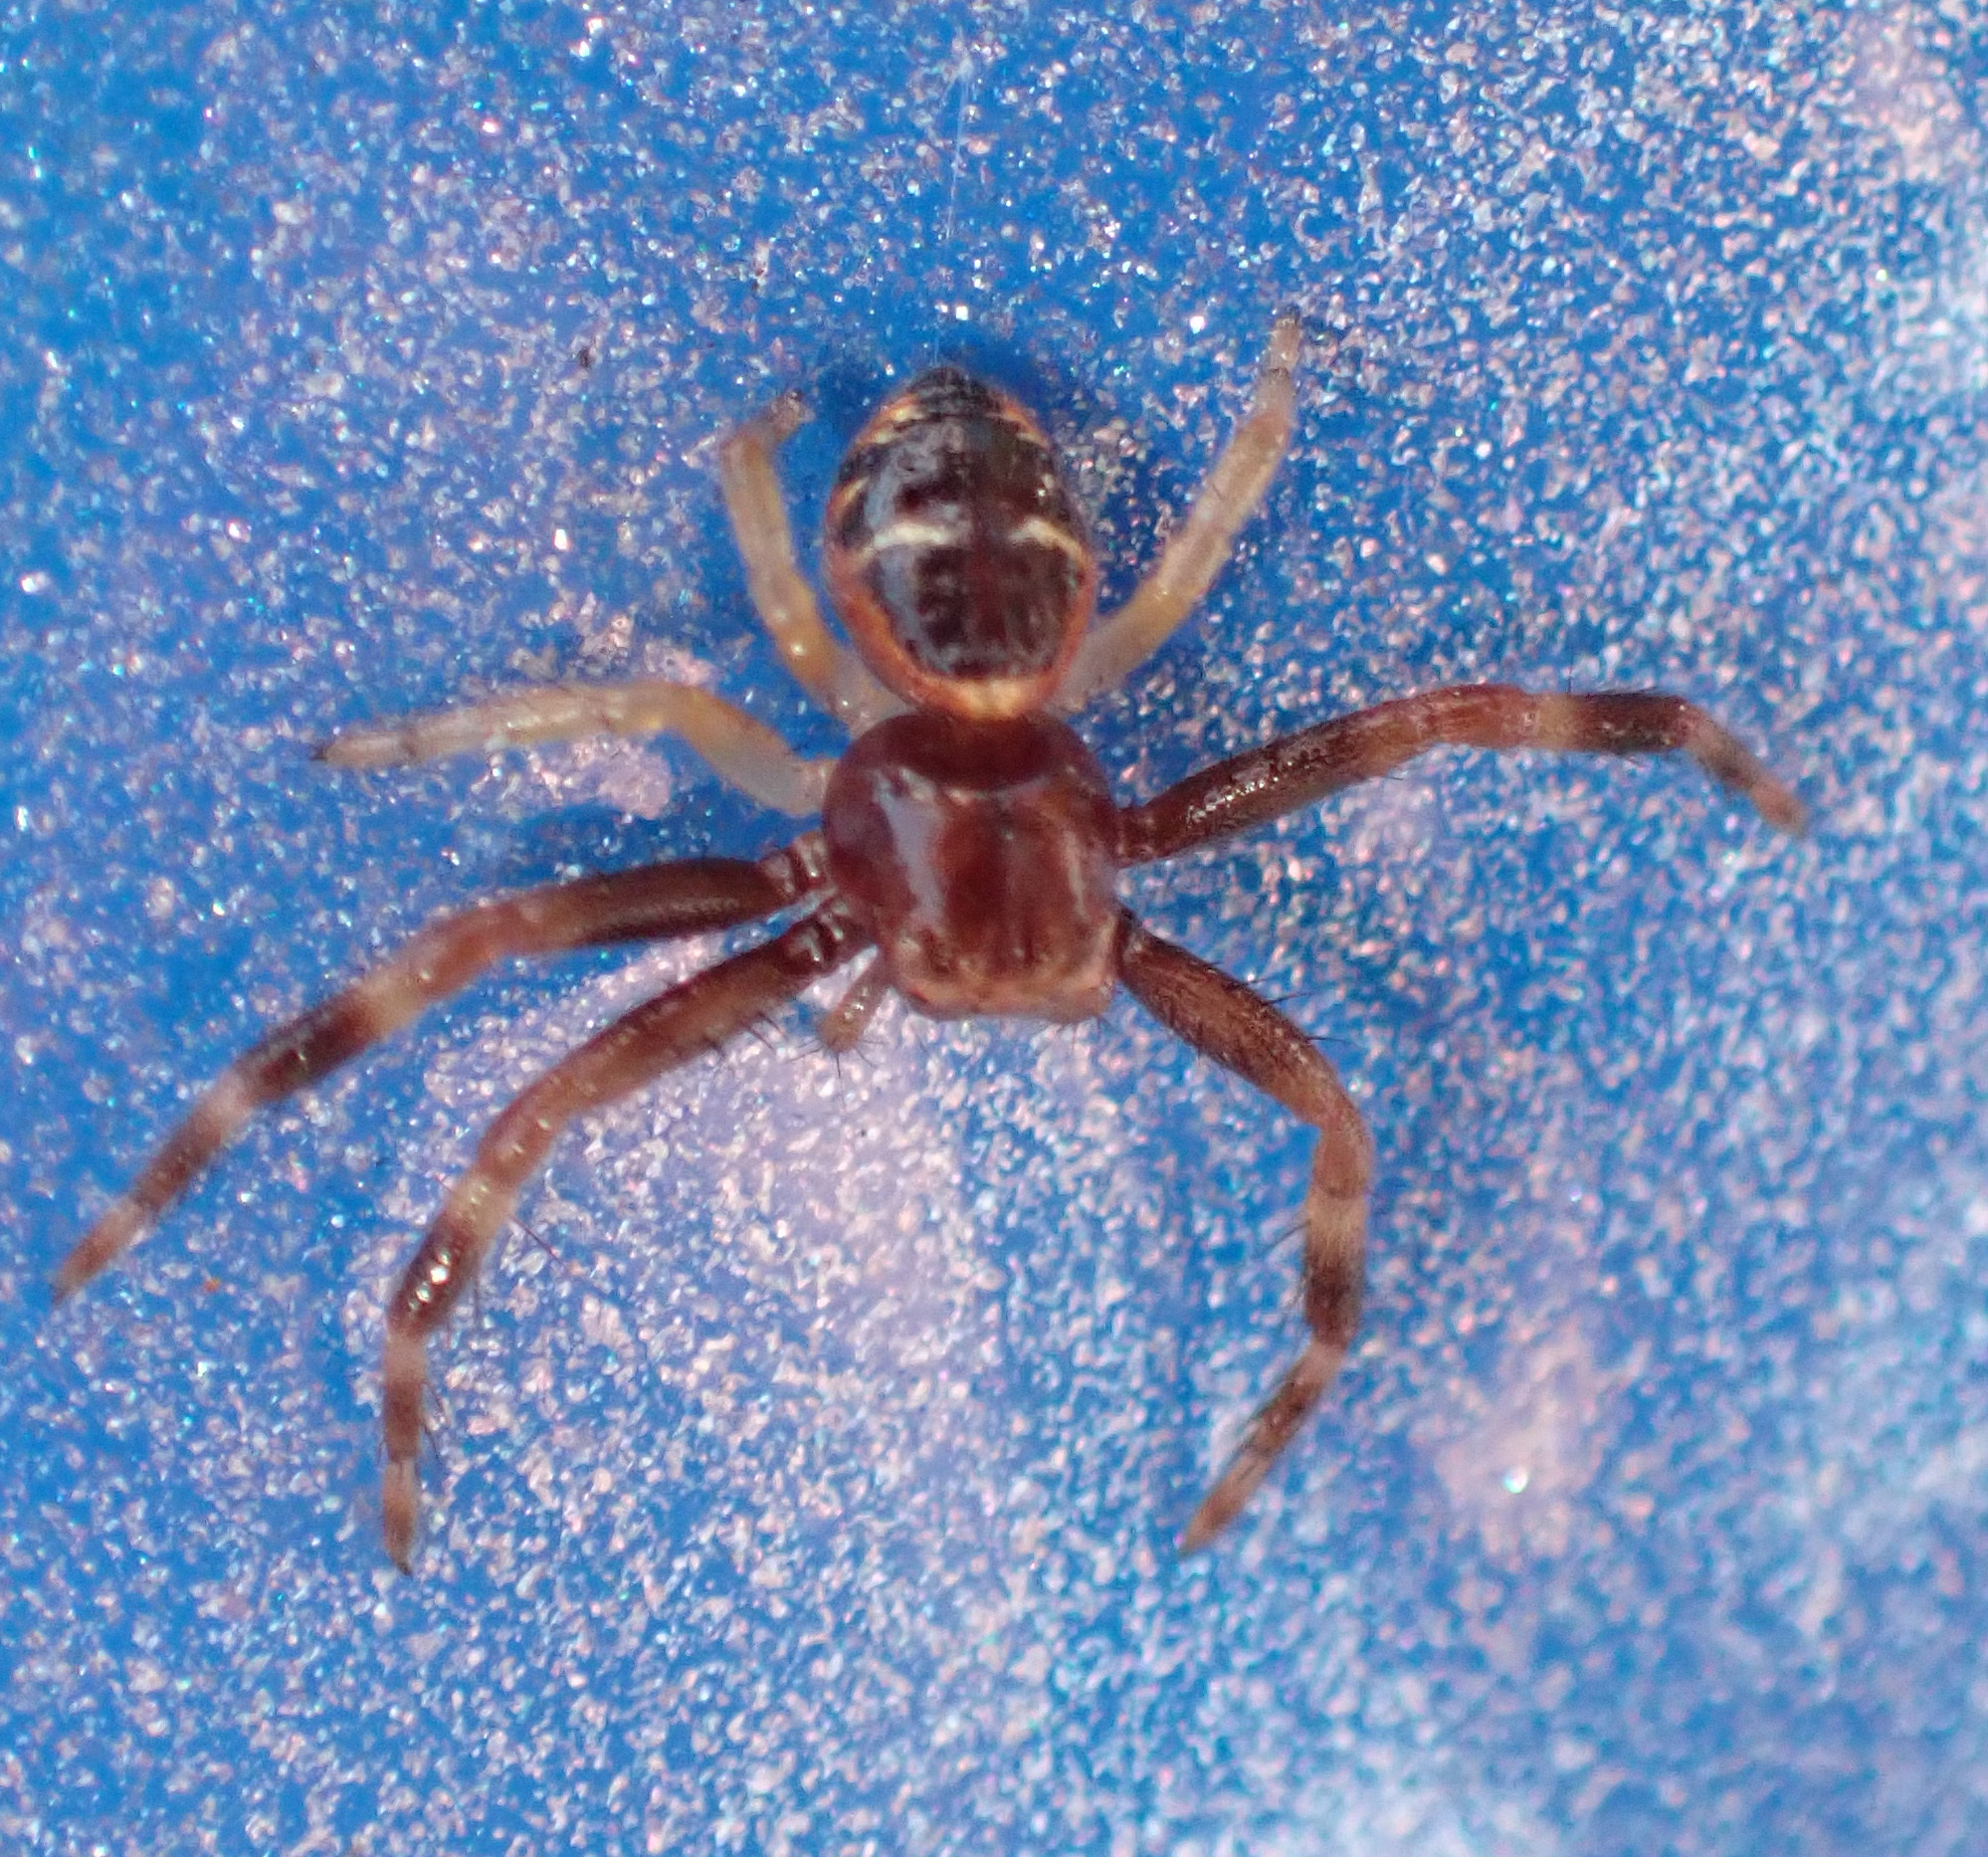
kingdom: Animalia
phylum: Arthropoda
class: Arachnida
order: Araneae
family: Thomisidae
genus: Synema
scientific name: Synema globosum
